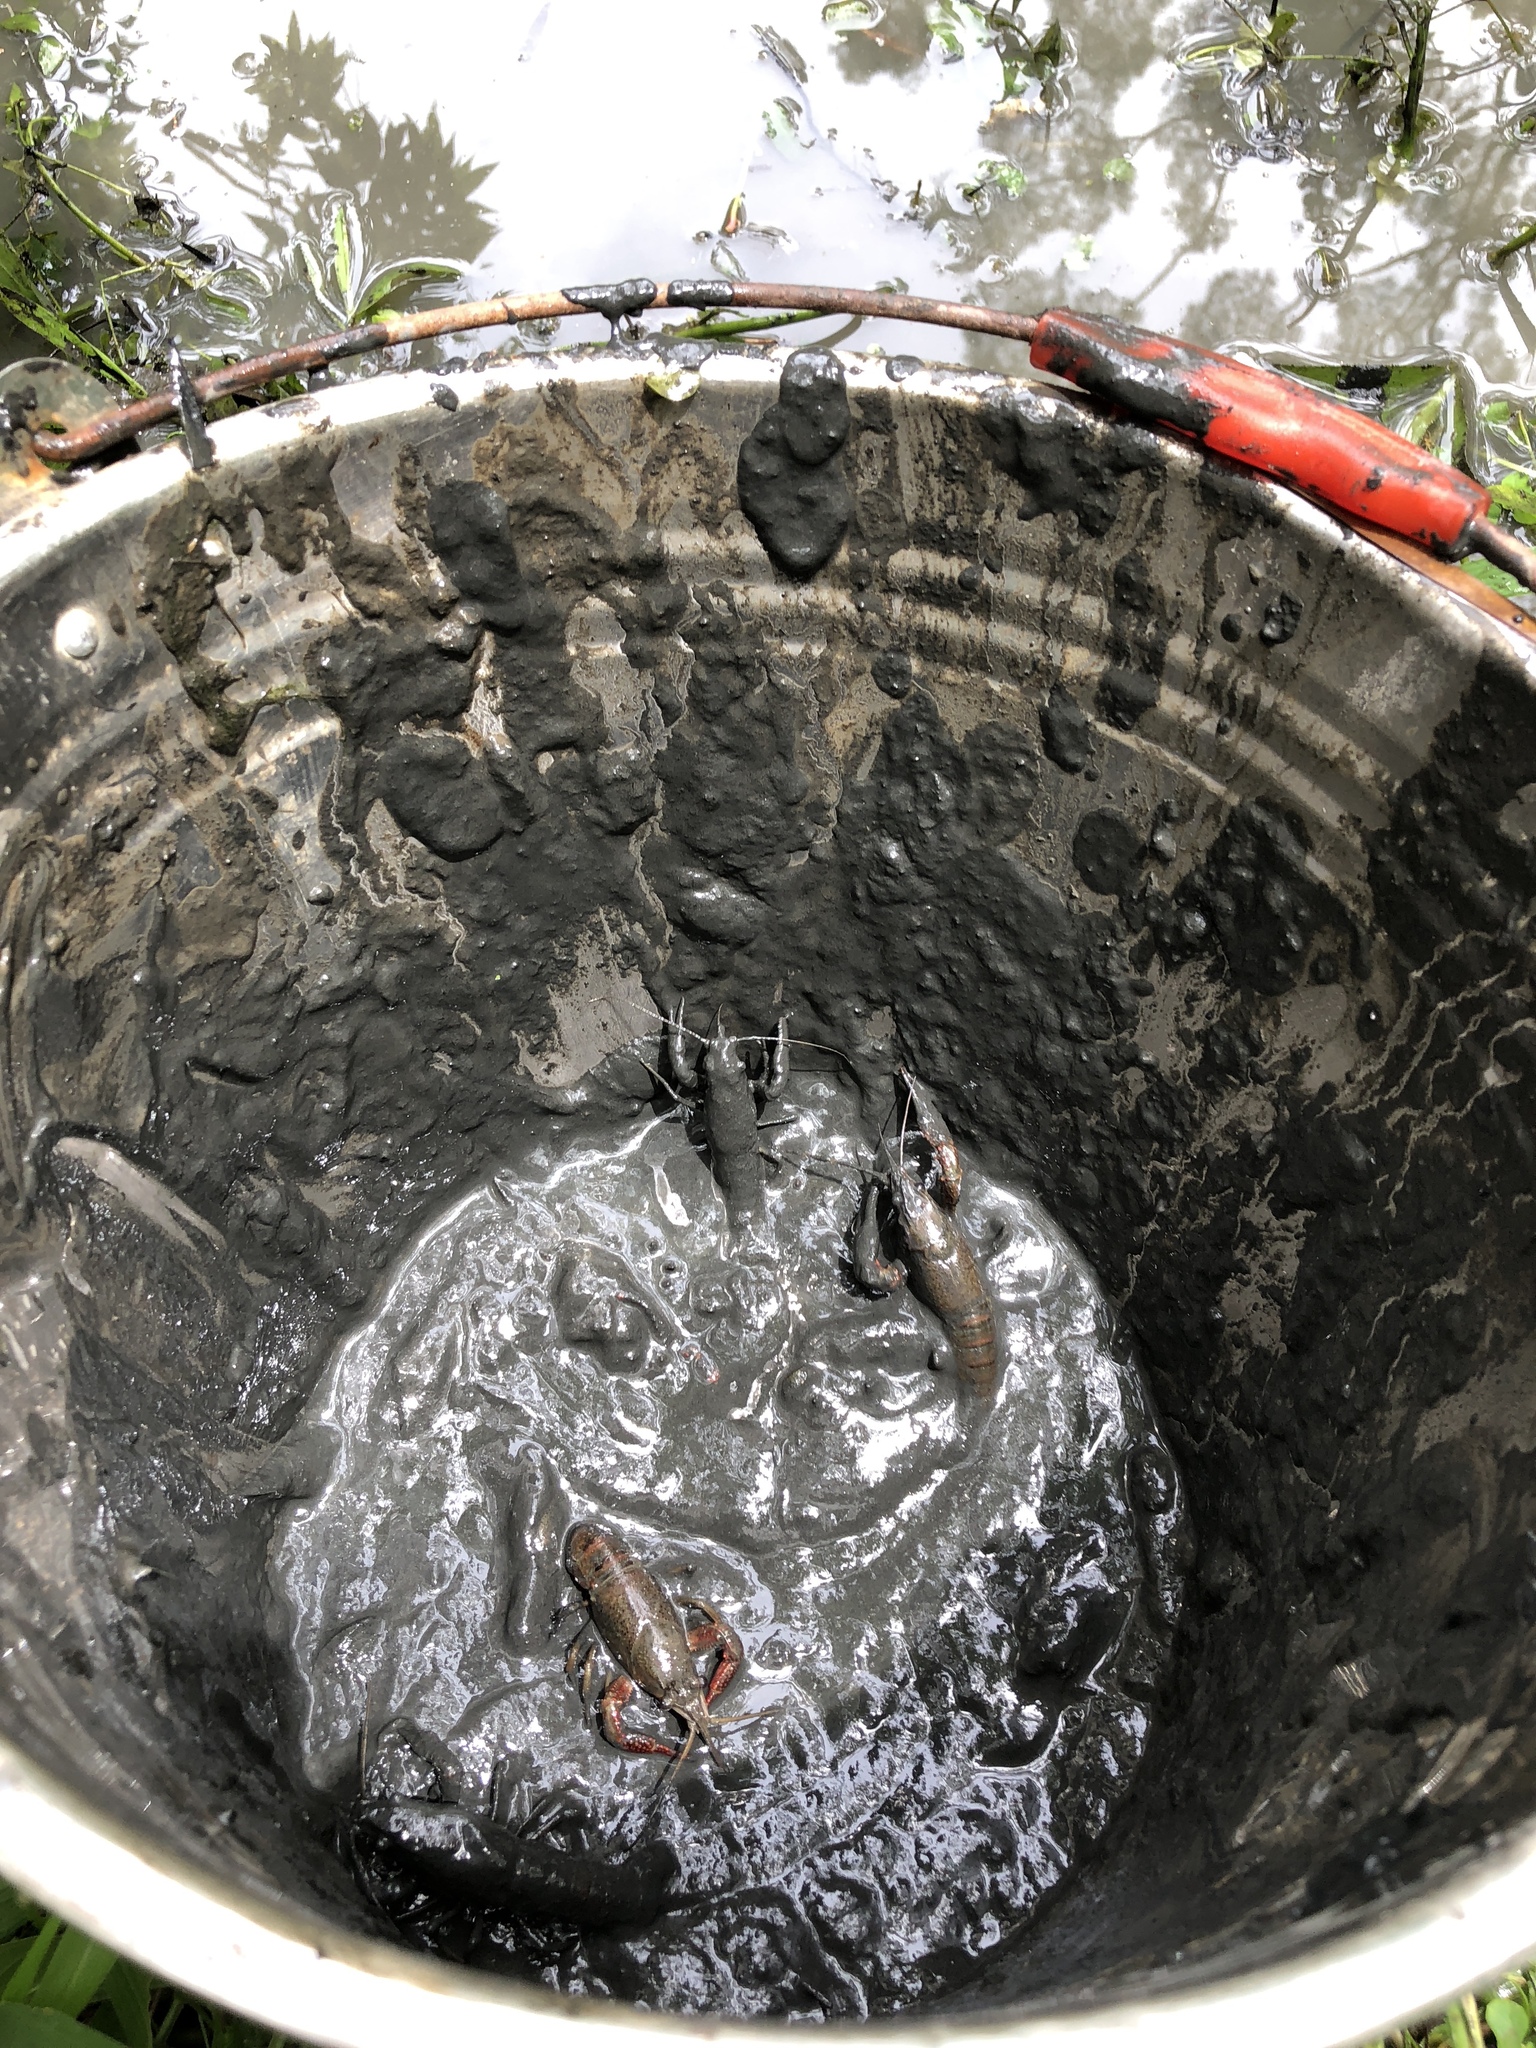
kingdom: Animalia
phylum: Arthropoda
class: Malacostraca
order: Decapoda
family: Cambaridae
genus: Procambarus
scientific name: Procambarus clarkii
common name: Red swamp crayfish
